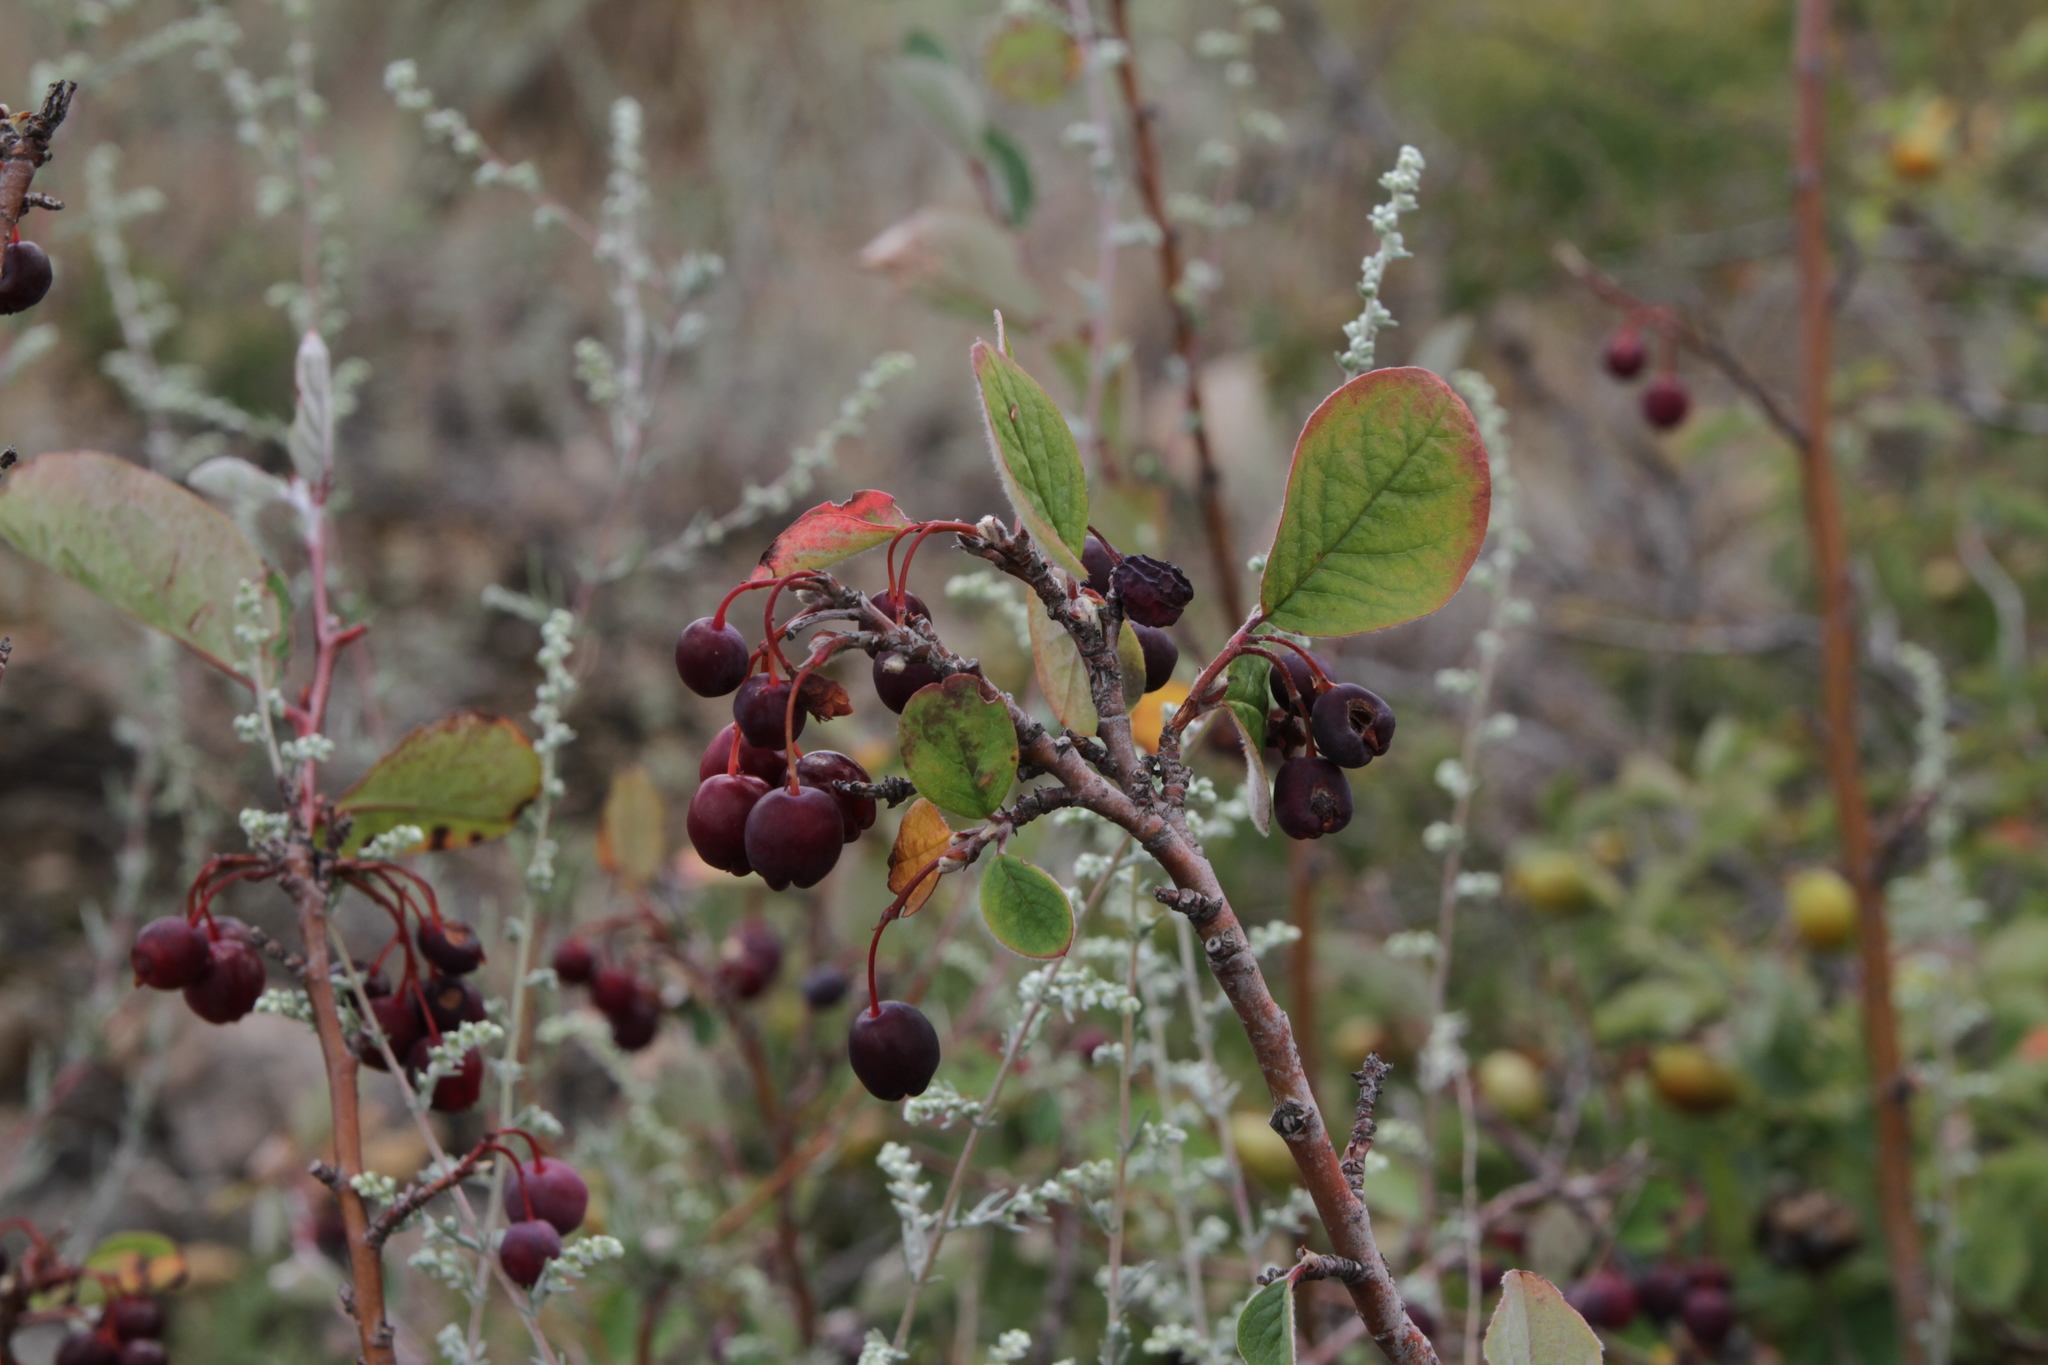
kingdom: Plantae
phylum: Tracheophyta
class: Magnoliopsida
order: Rosales
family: Rosaceae
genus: Cotoneaster
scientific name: Cotoneaster melanocarpus
